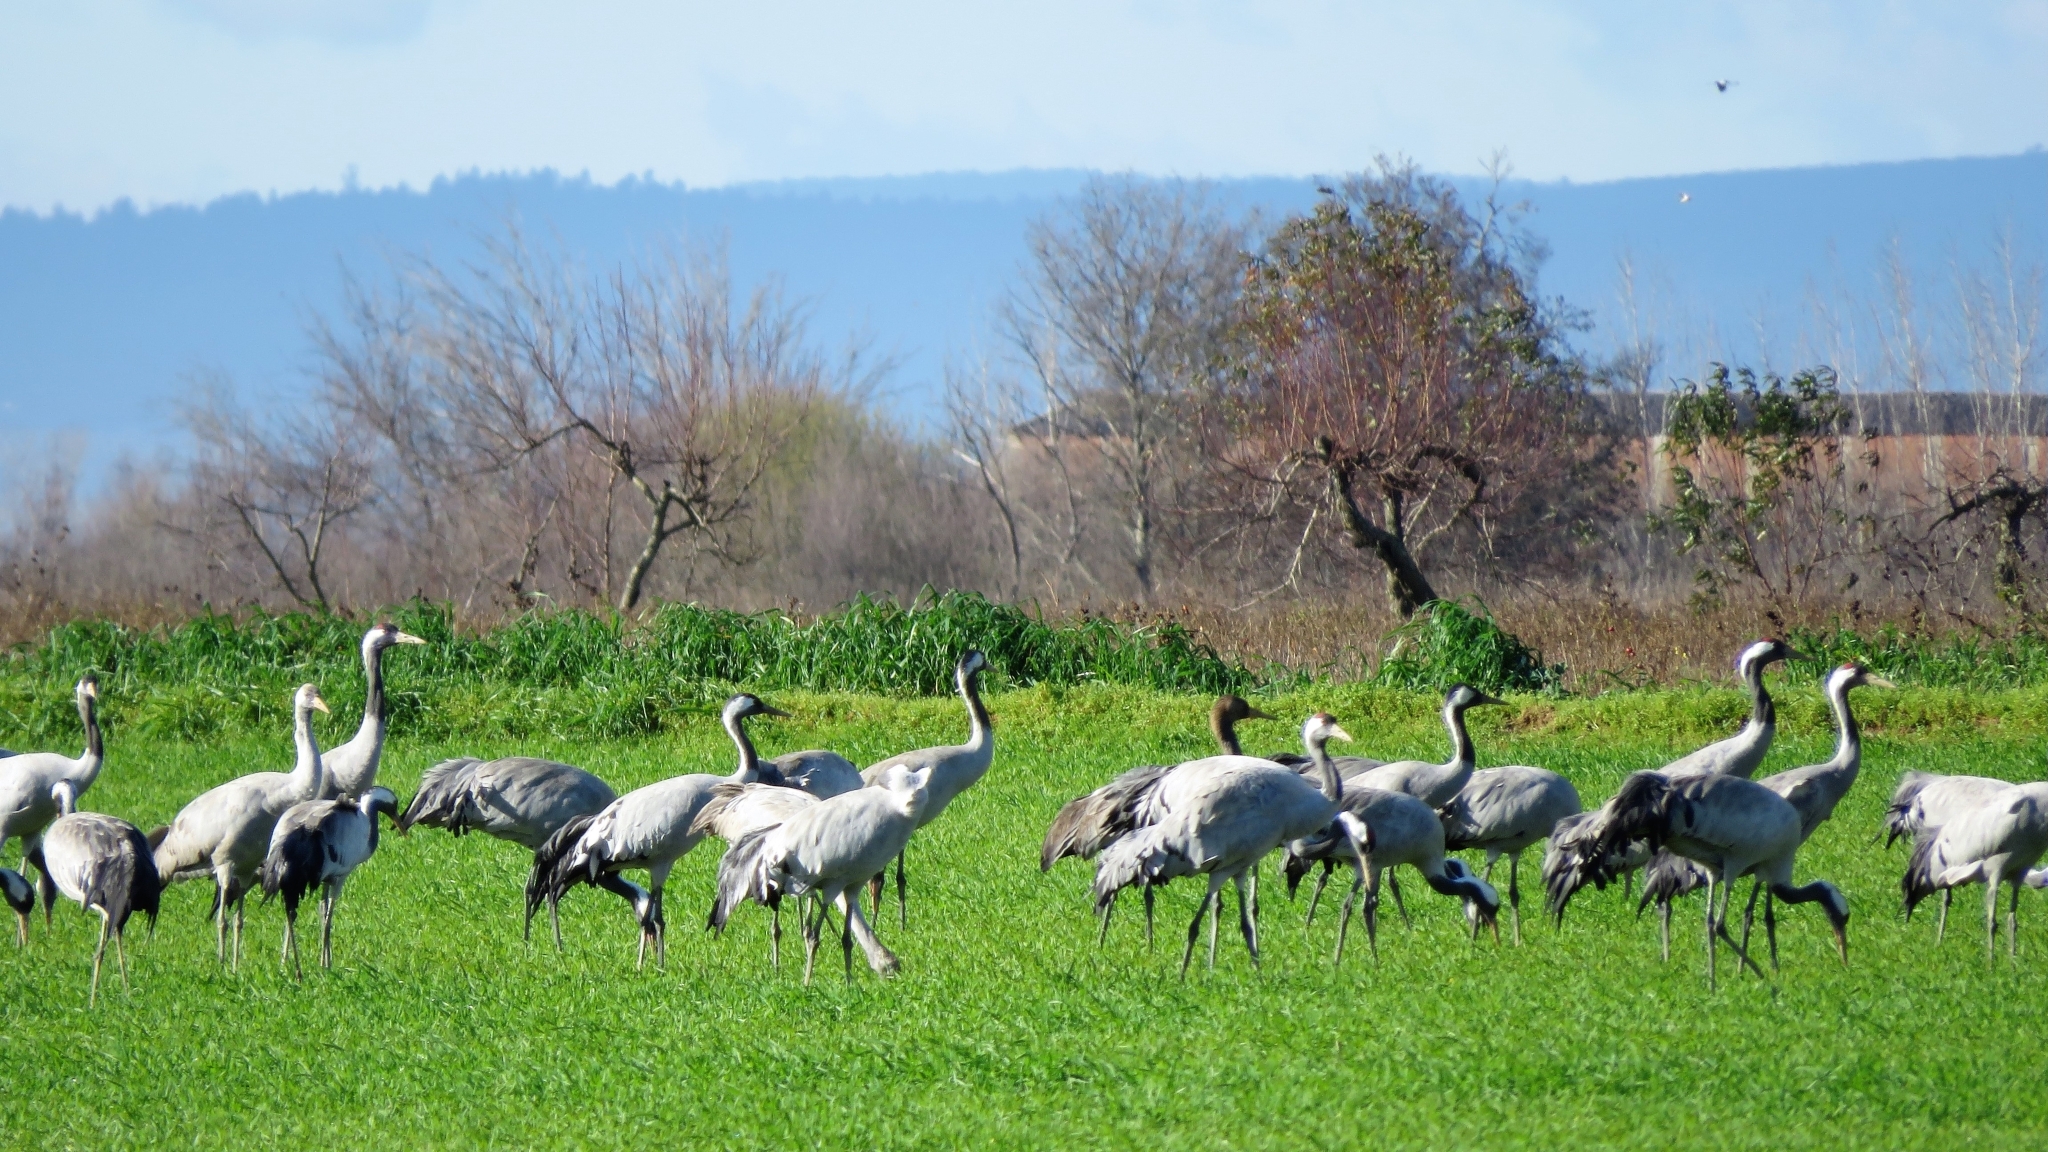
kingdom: Animalia
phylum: Chordata
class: Aves
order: Gruiformes
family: Gruidae
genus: Grus
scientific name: Grus grus
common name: Common crane
